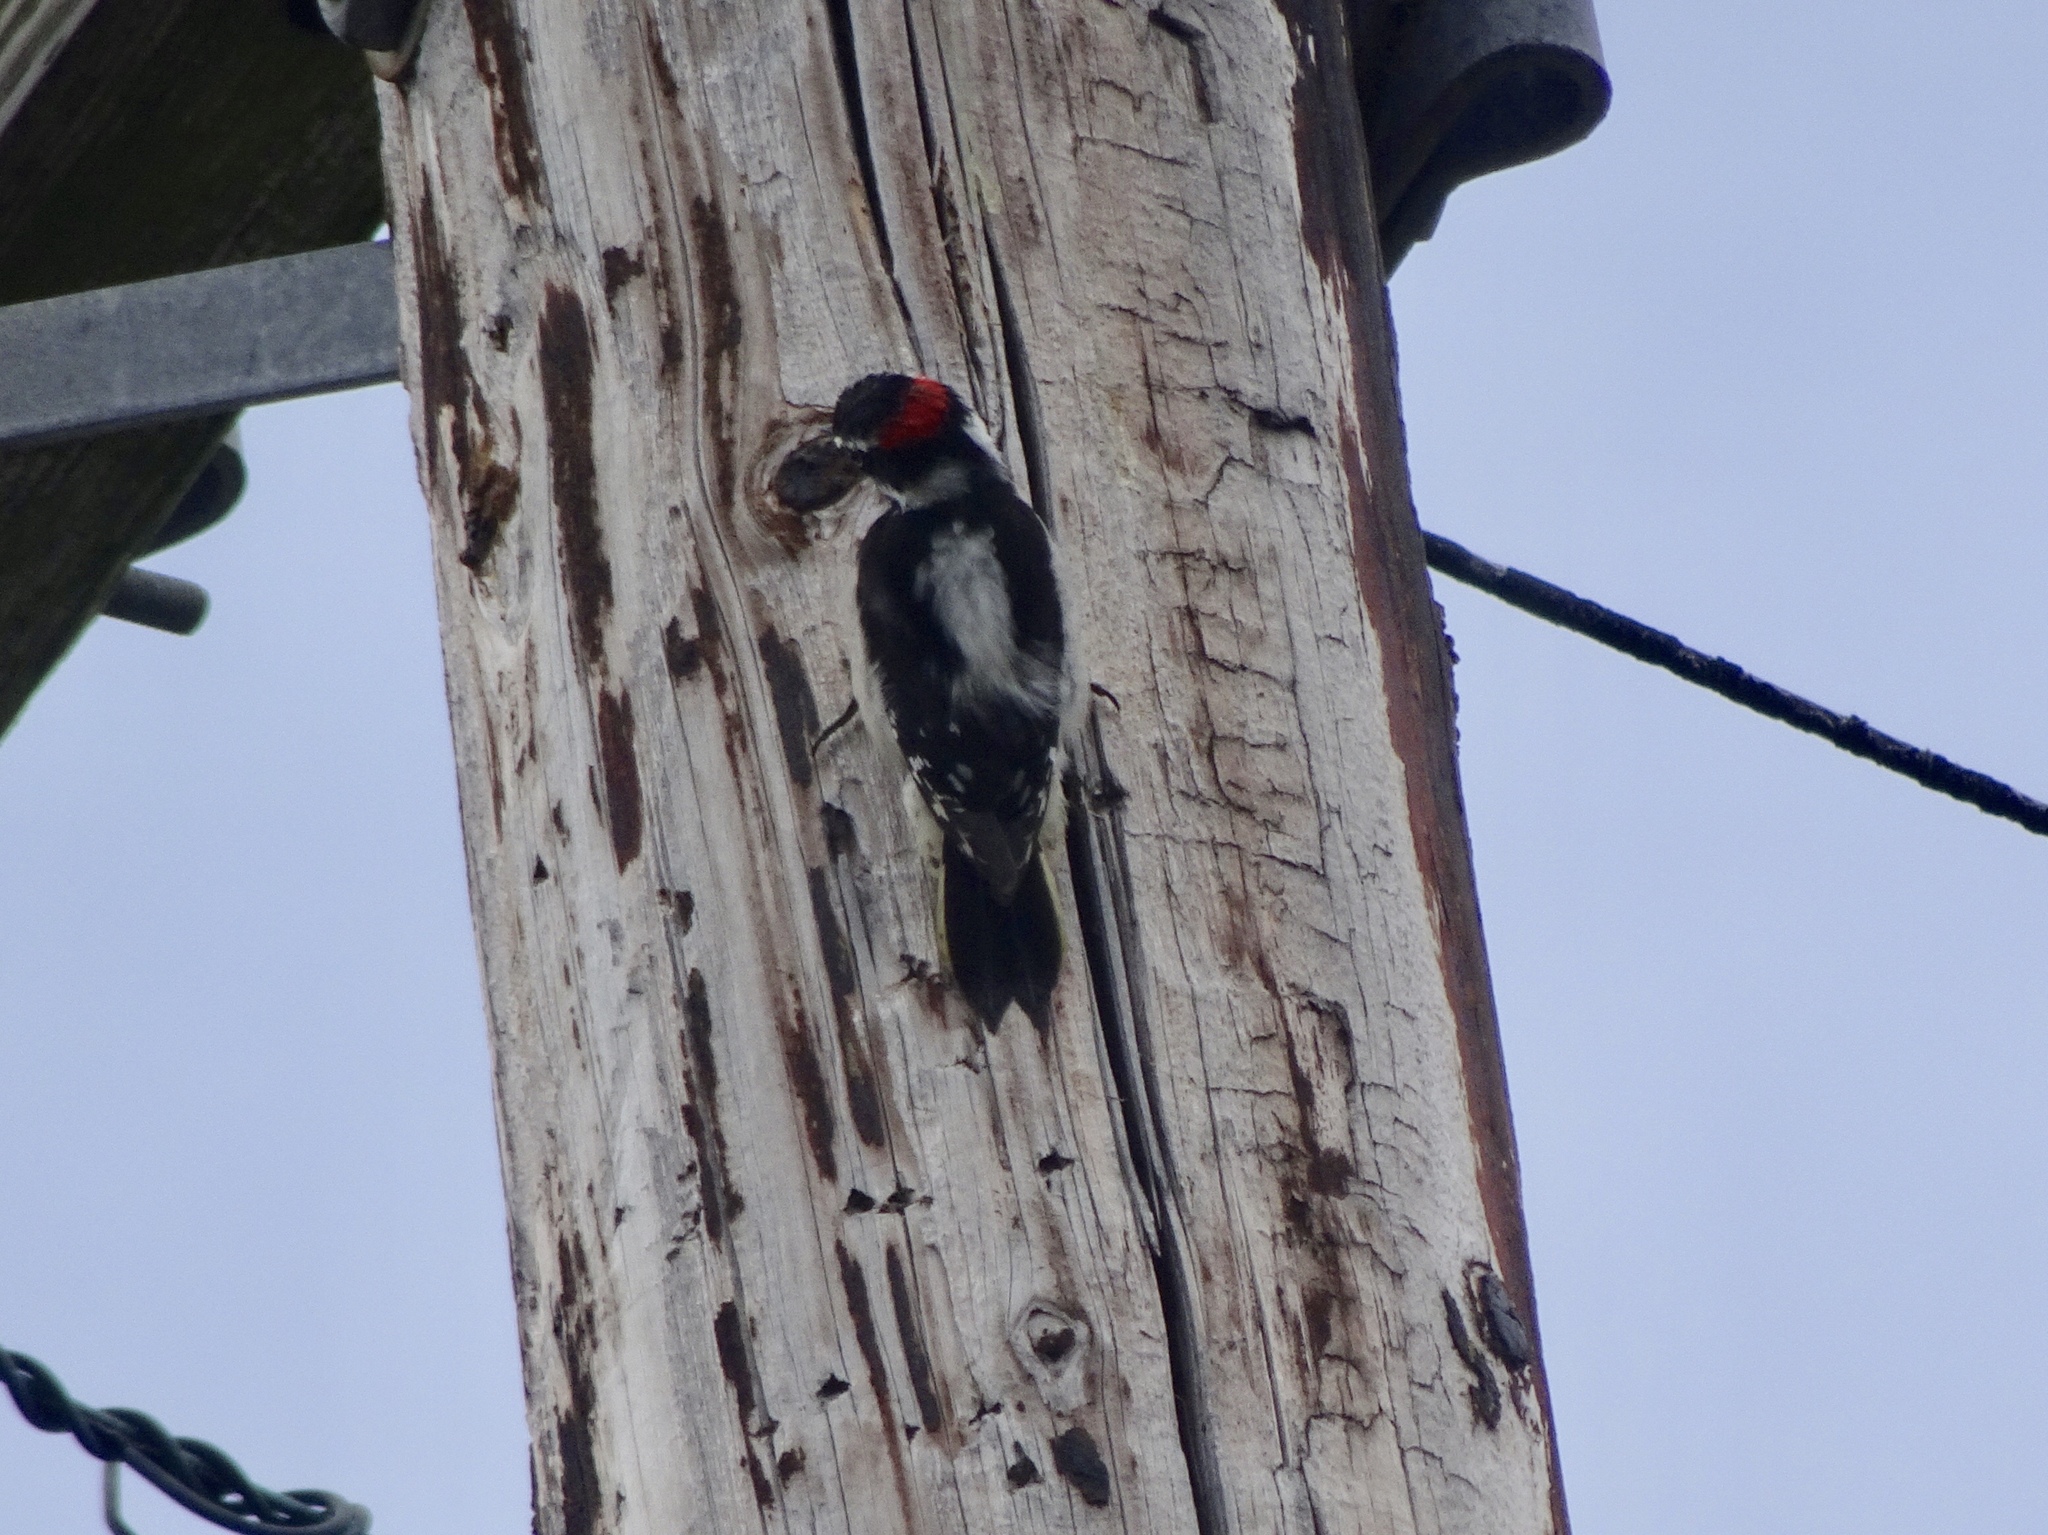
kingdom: Animalia
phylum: Chordata
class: Aves
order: Piciformes
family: Picidae
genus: Dryobates
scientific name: Dryobates pubescens
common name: Downy woodpecker
